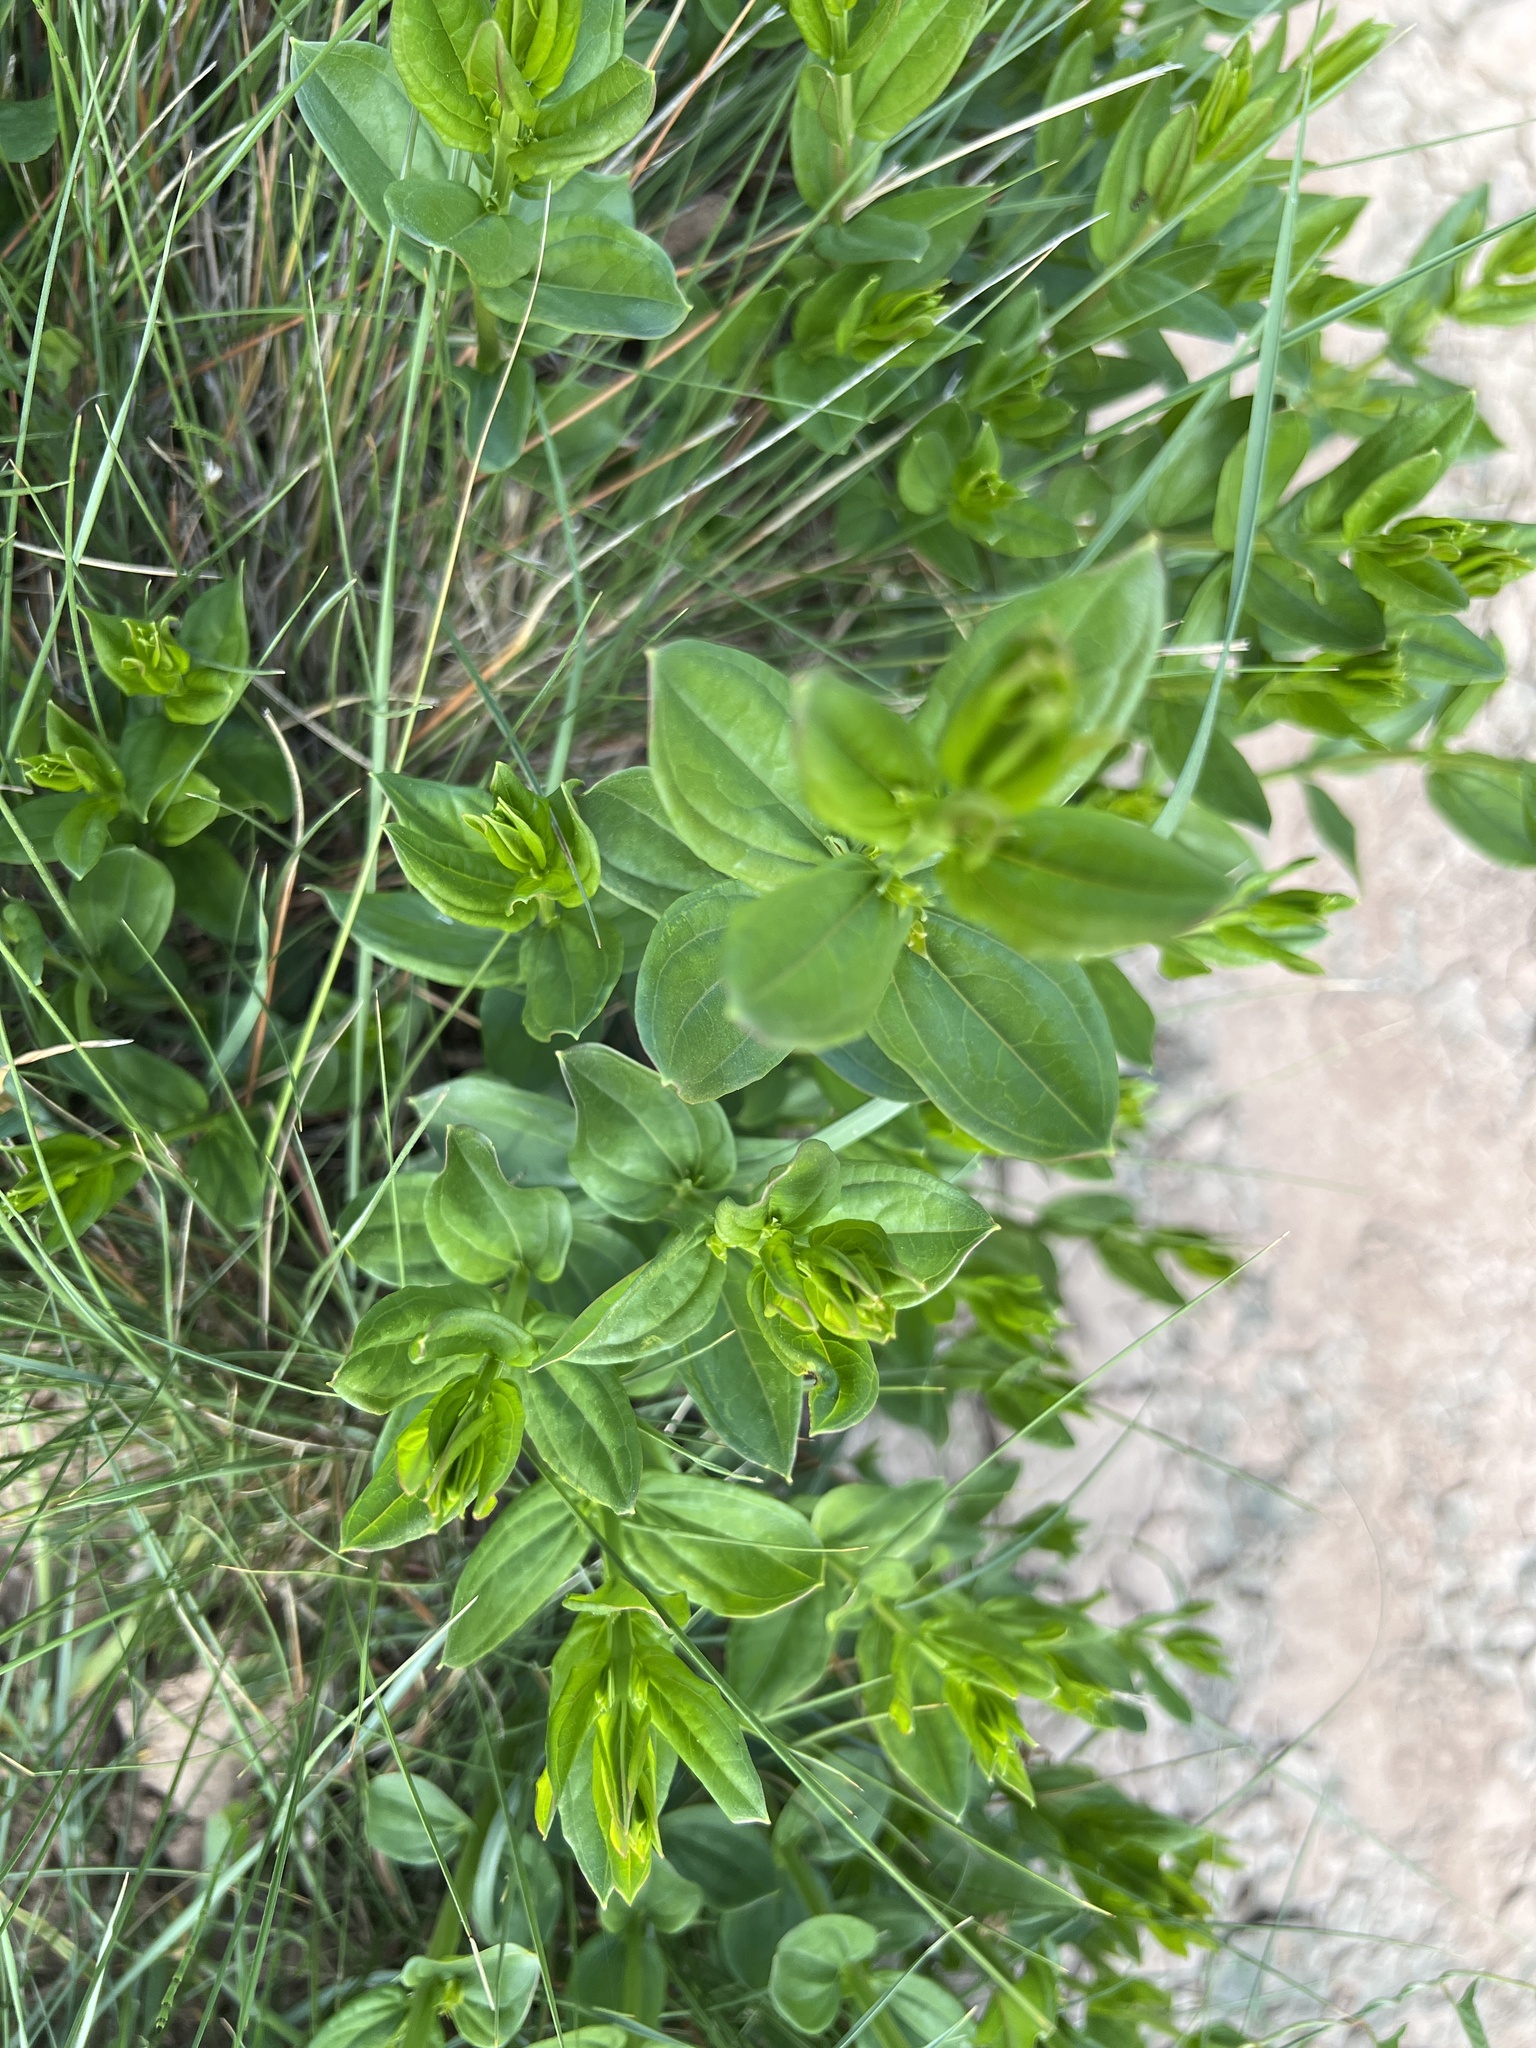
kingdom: Plantae
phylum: Tracheophyta
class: Magnoliopsida
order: Cucurbitales
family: Coriariaceae
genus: Coriaria
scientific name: Coriaria myrtifolia
